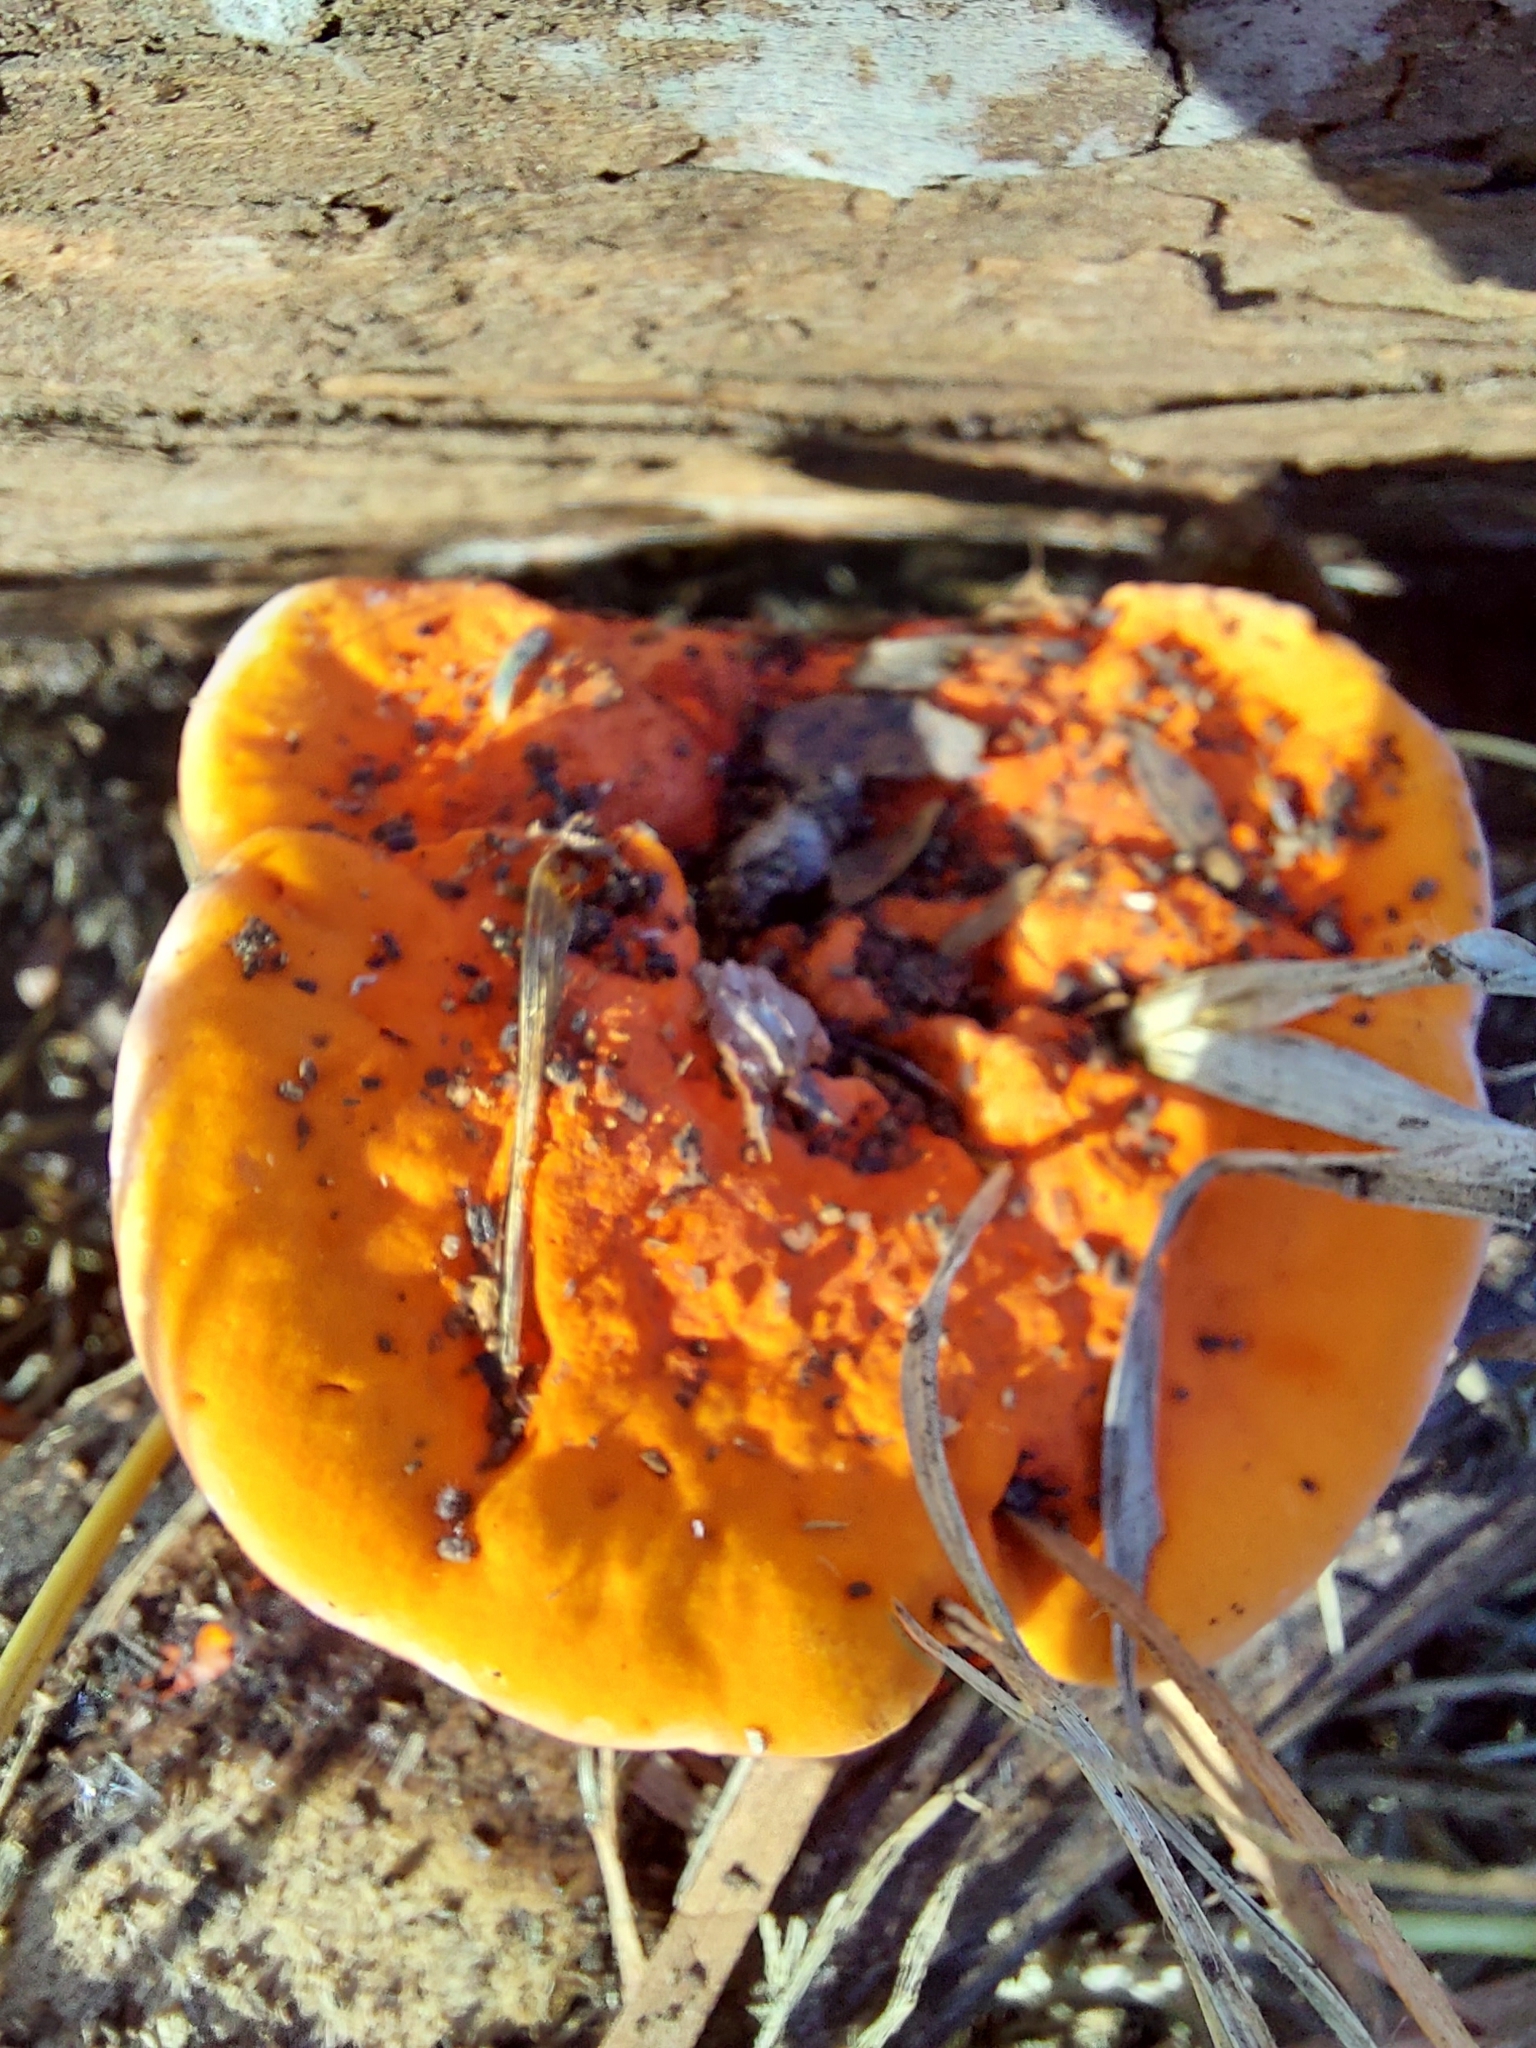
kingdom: Fungi
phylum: Basidiomycota
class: Agaricomycetes
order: Polyporales
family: Polyporaceae
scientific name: Polyporaceae
